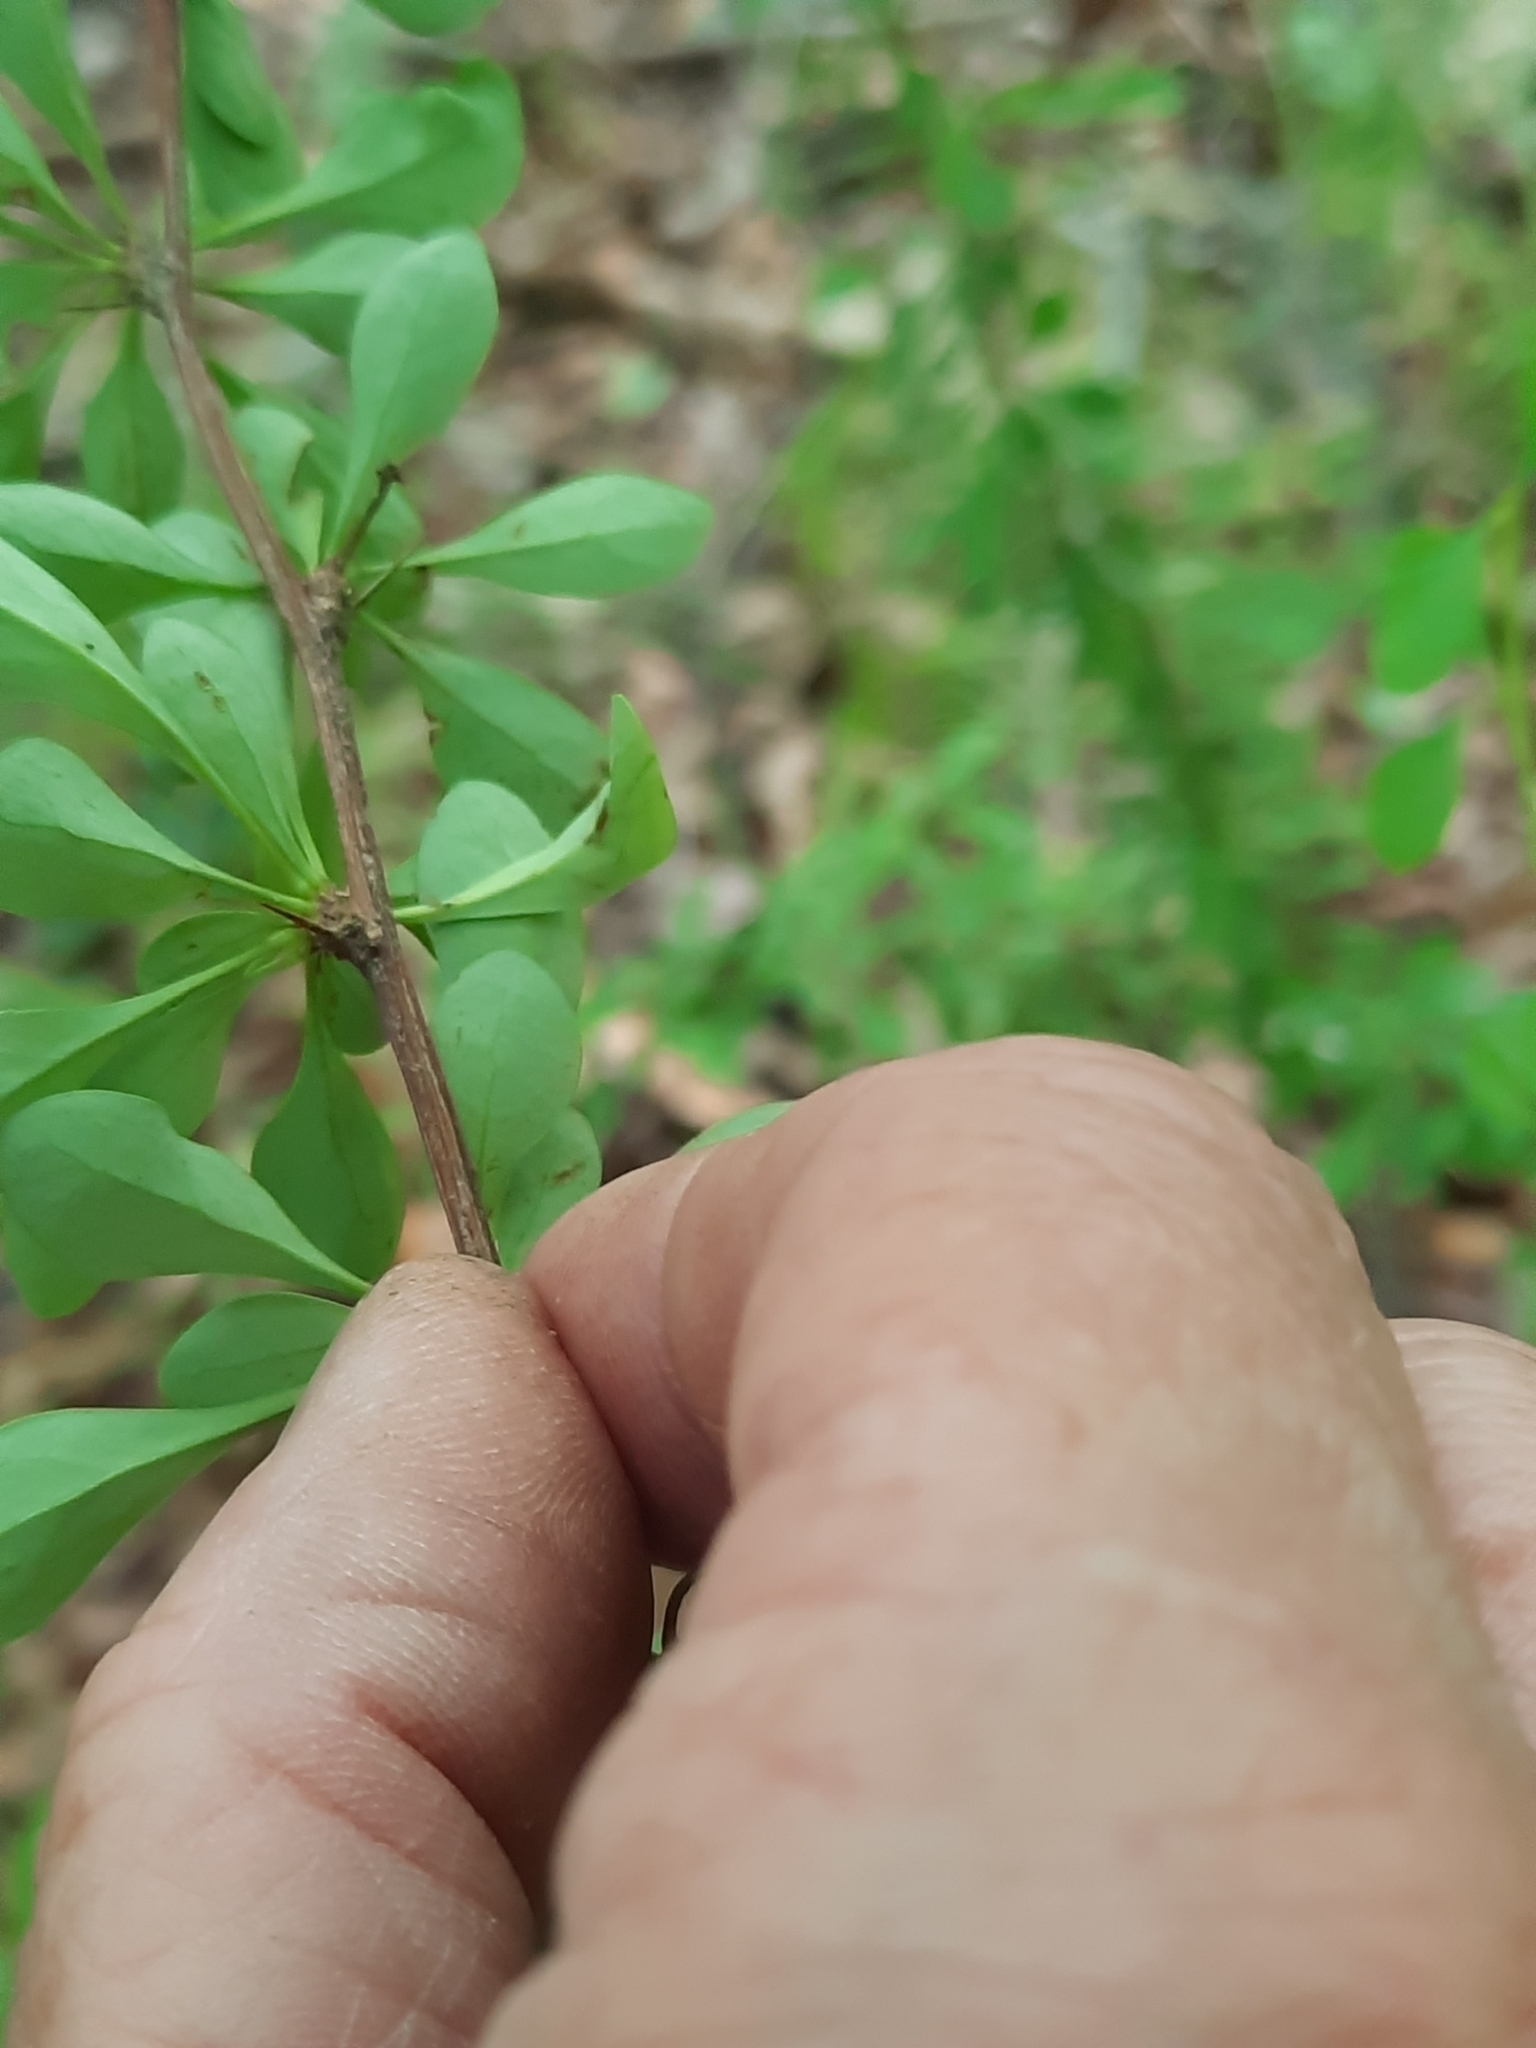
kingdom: Plantae
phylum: Tracheophyta
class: Magnoliopsida
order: Ranunculales
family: Berberidaceae
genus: Berberis
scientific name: Berberis thunbergii
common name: Japanese barberry
